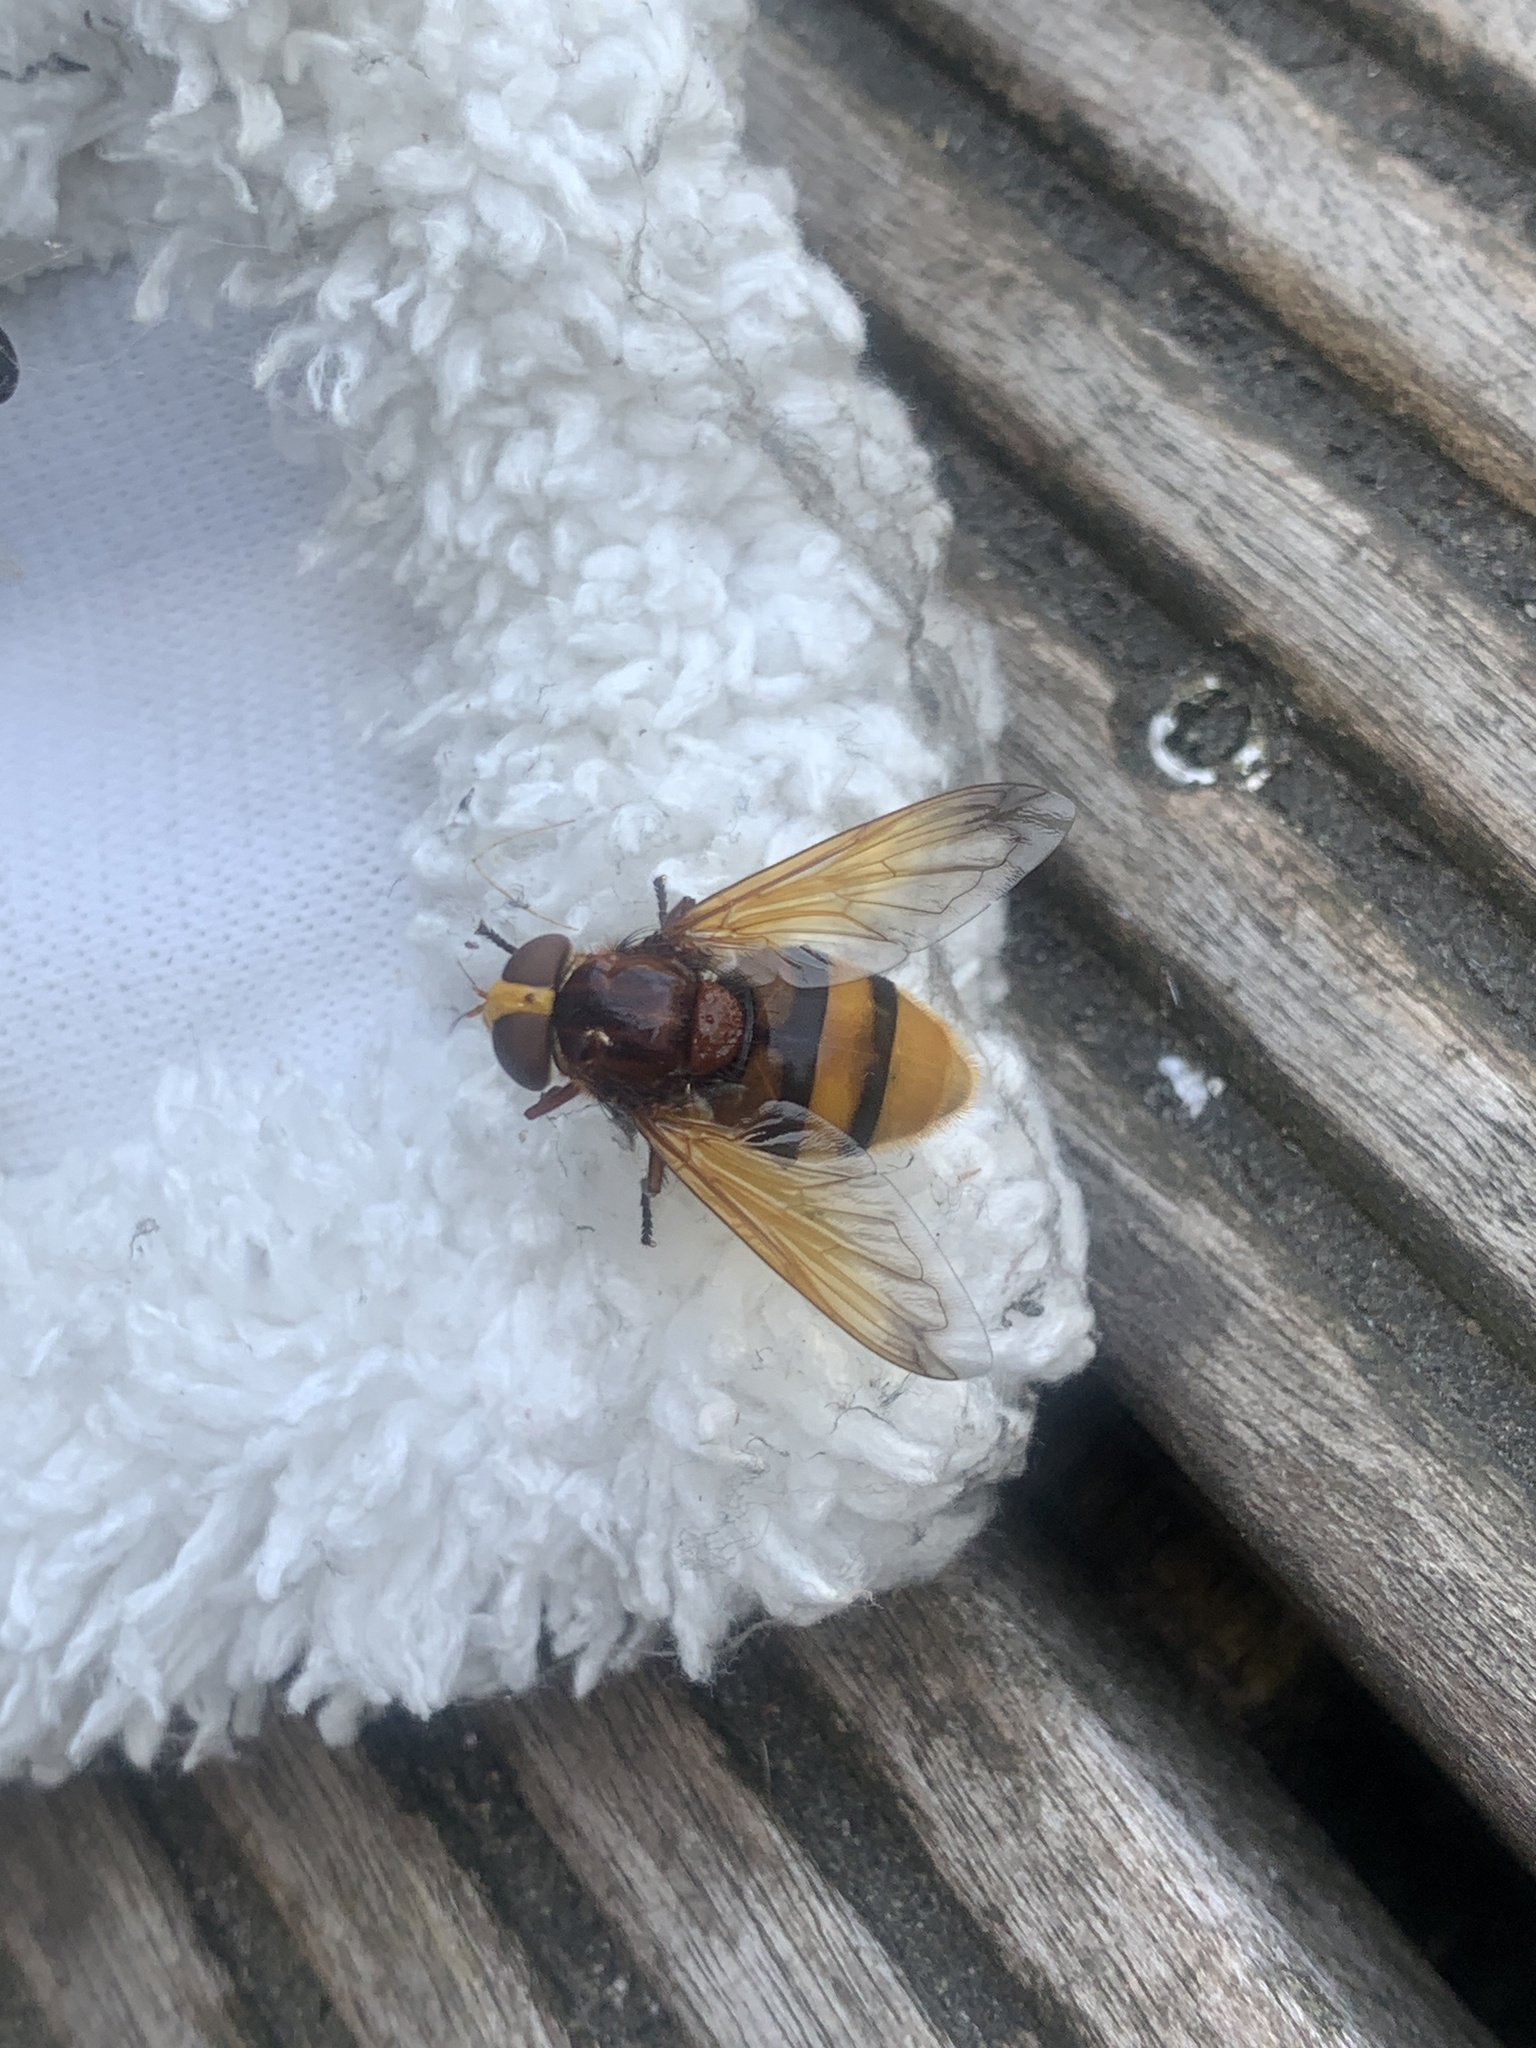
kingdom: Animalia
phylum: Arthropoda
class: Insecta
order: Diptera
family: Syrphidae
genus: Volucella
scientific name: Volucella zonaria
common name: Hornet hoverfly
